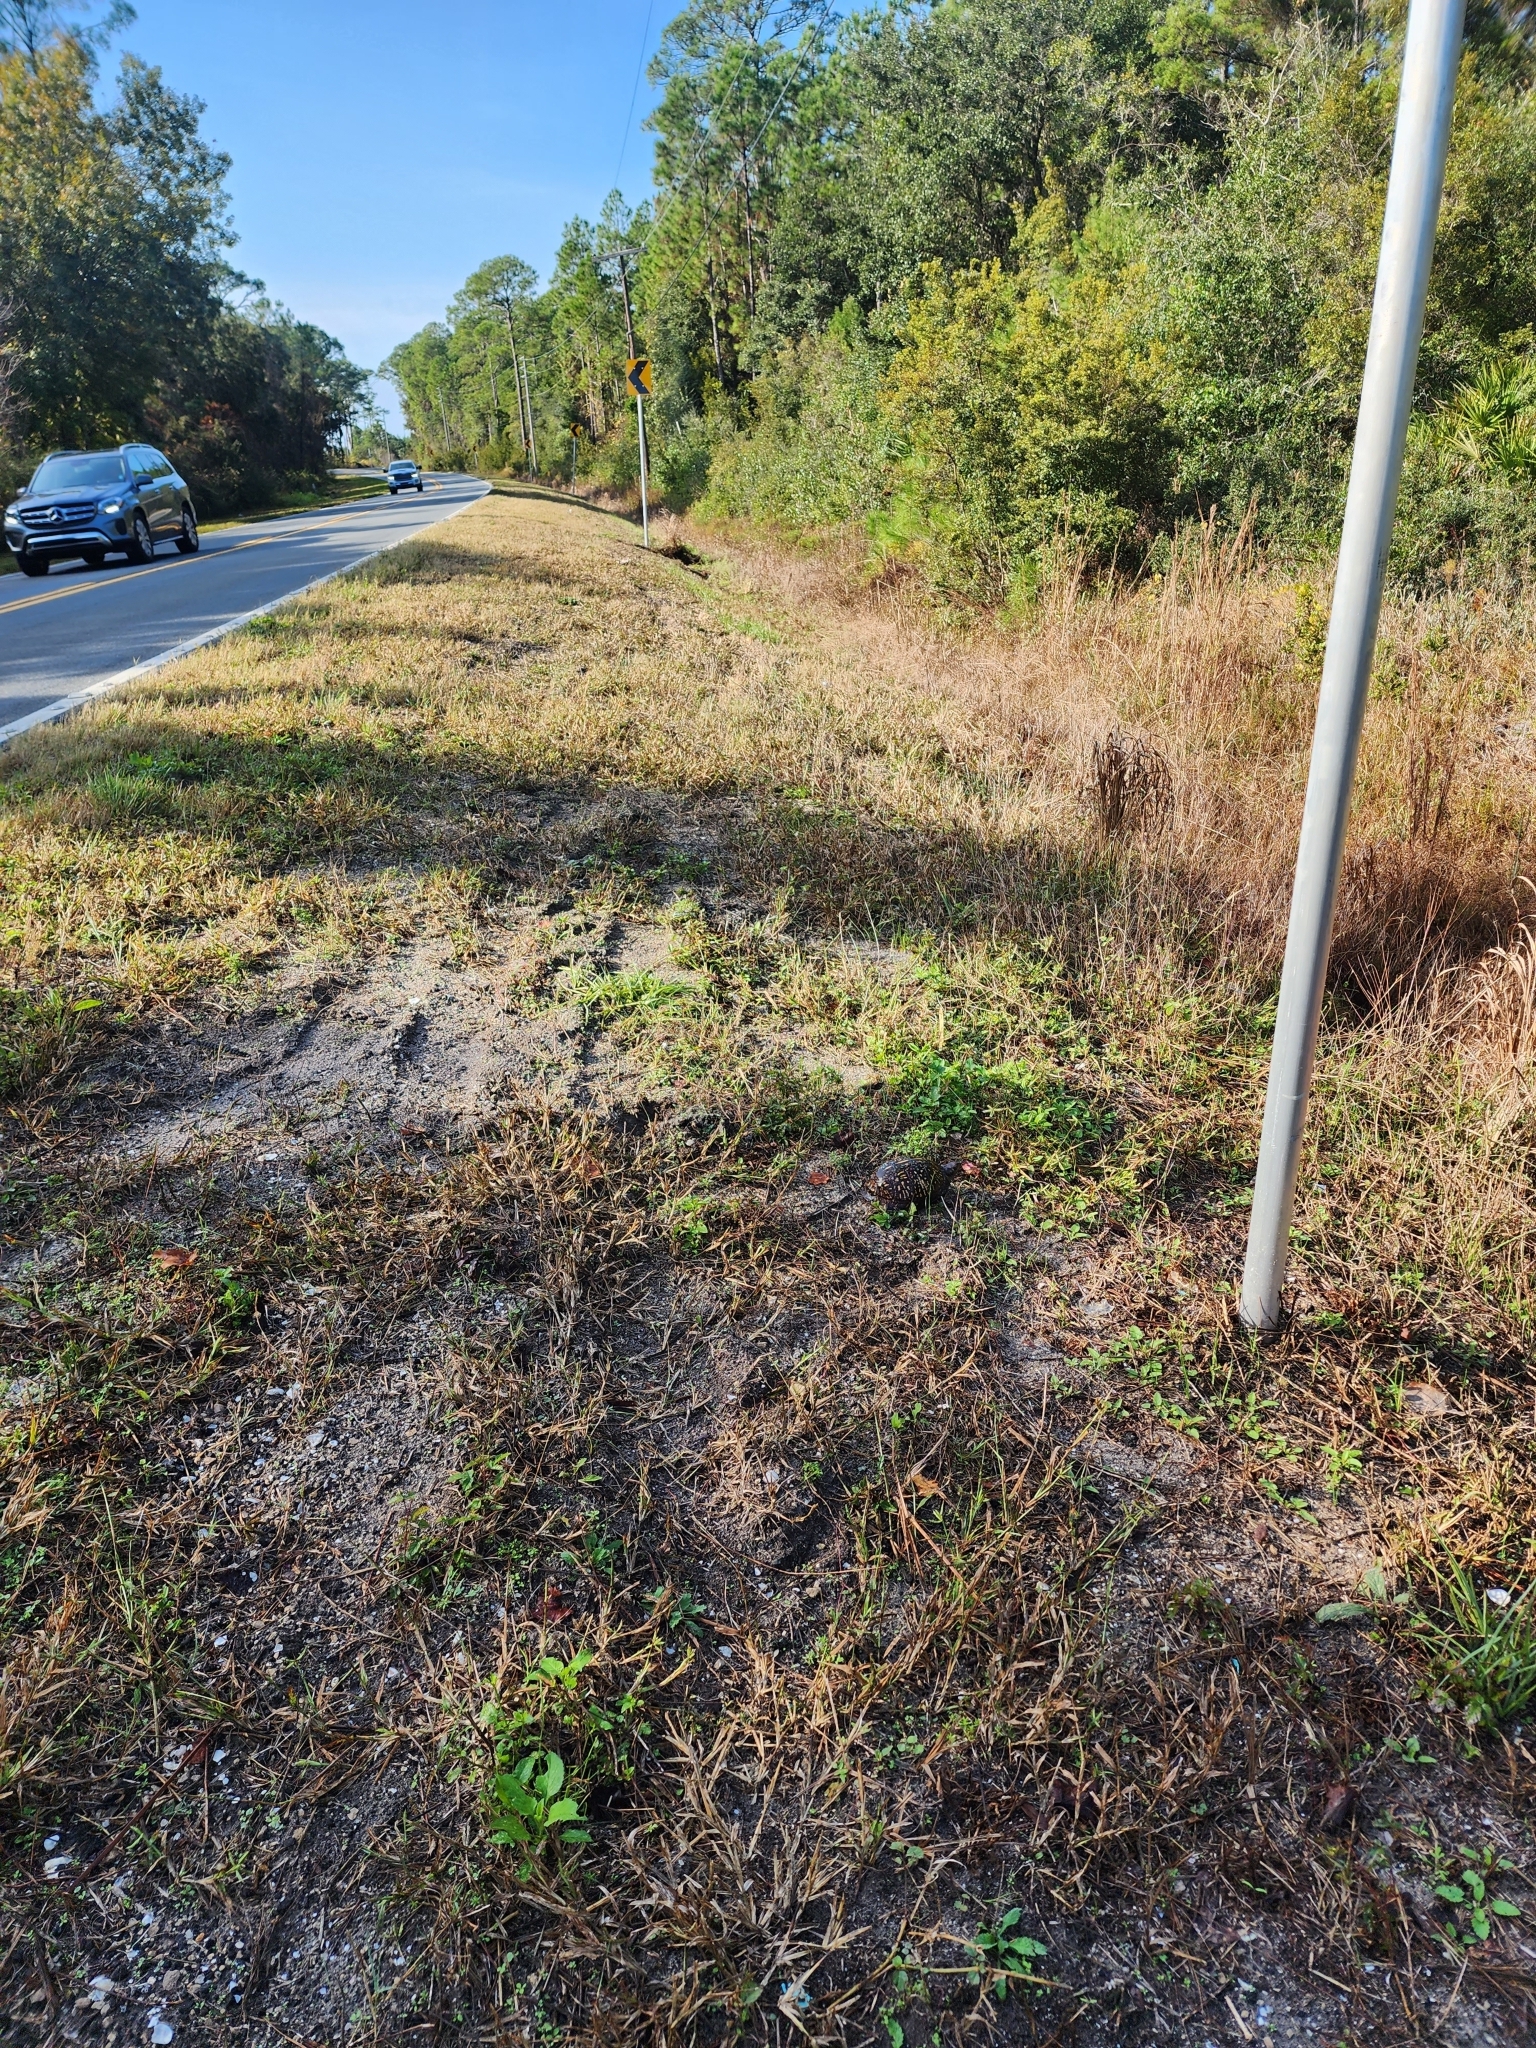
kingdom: Animalia
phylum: Chordata
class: Testudines
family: Emydidae
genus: Terrapene
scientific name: Terrapene carolina
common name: Common box turtle
